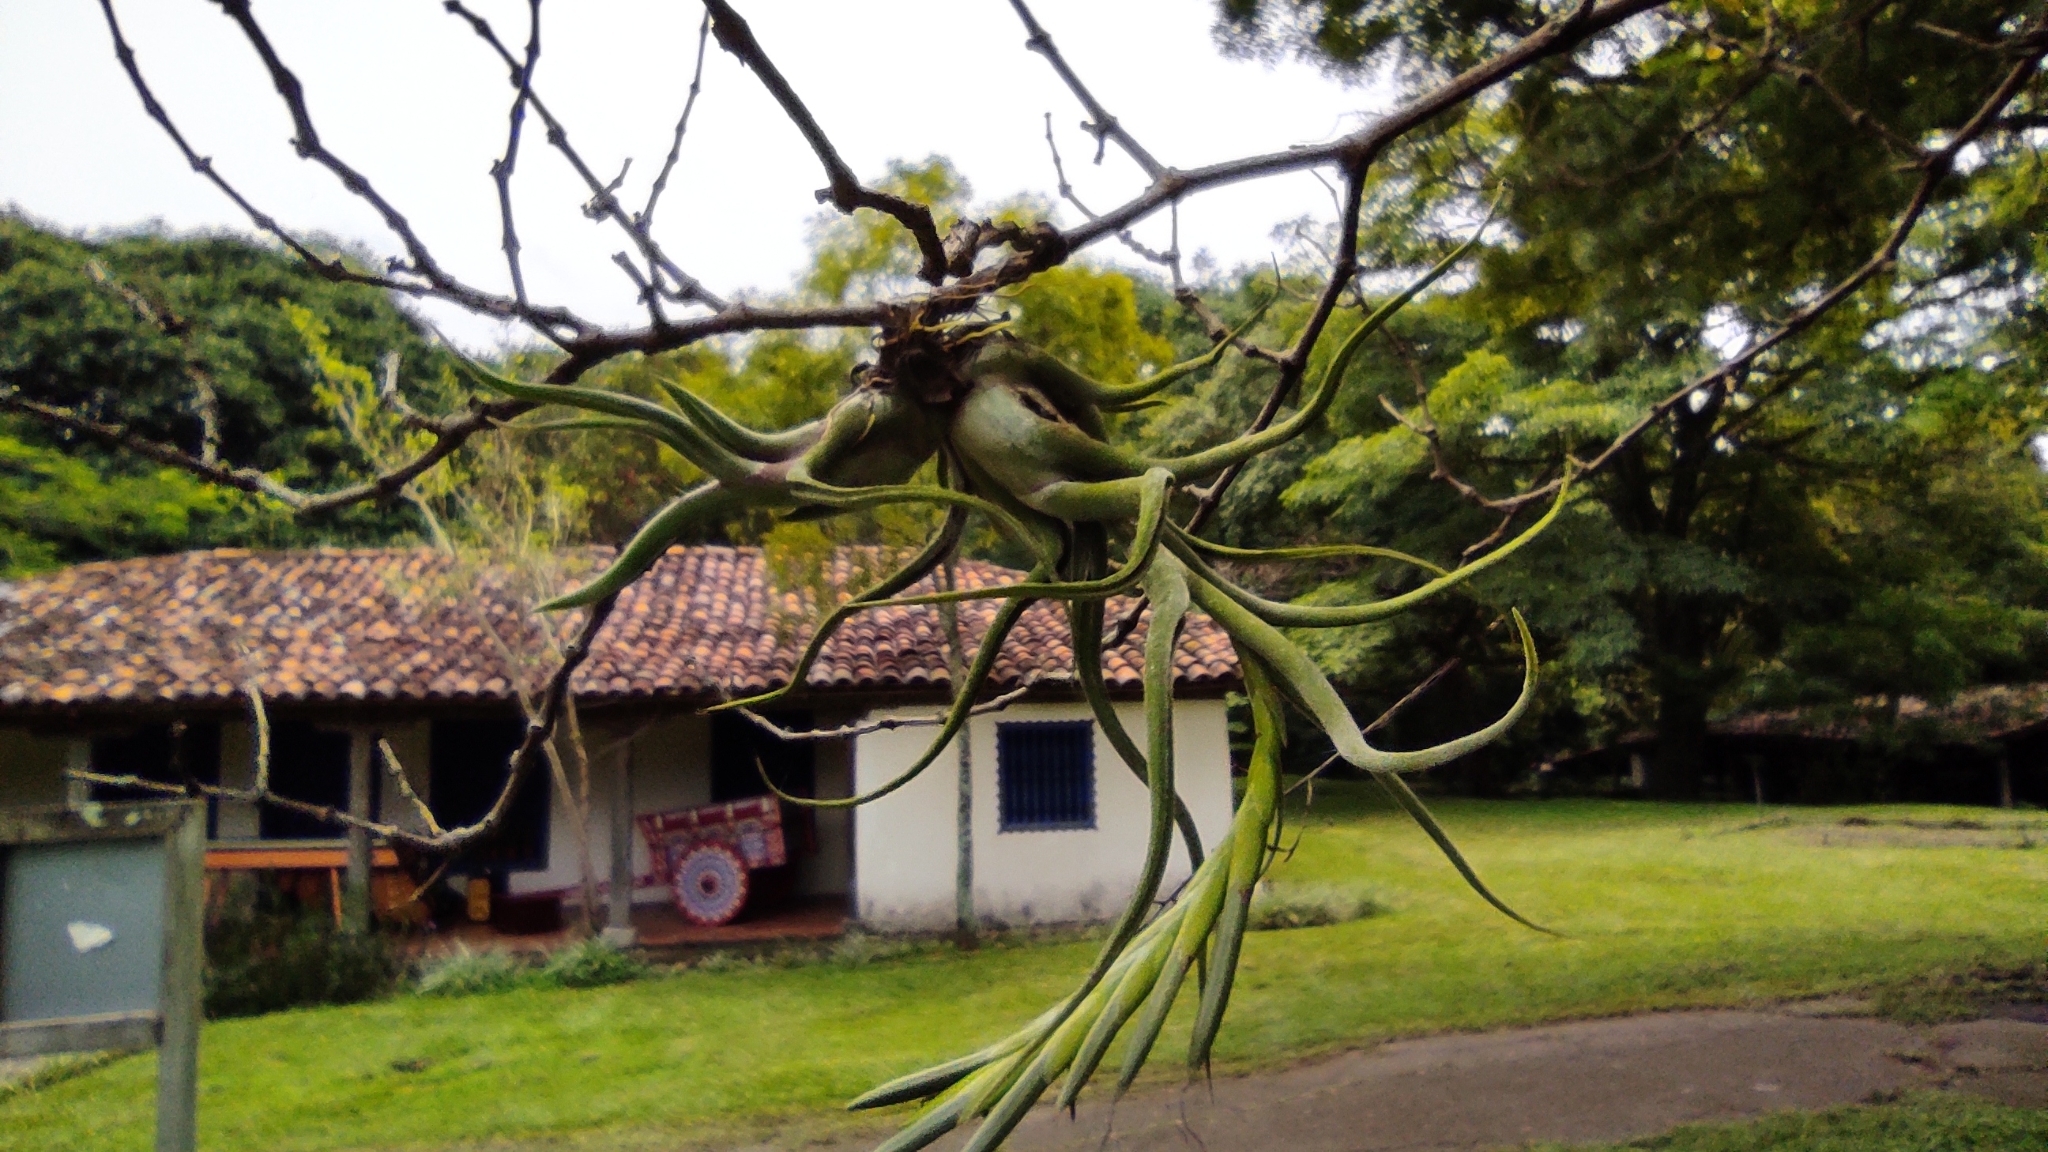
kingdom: Plantae
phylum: Tracheophyta
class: Liliopsida
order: Poales
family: Bromeliaceae
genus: Tillandsia
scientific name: Tillandsia caput-medusae
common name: Octopus plant
